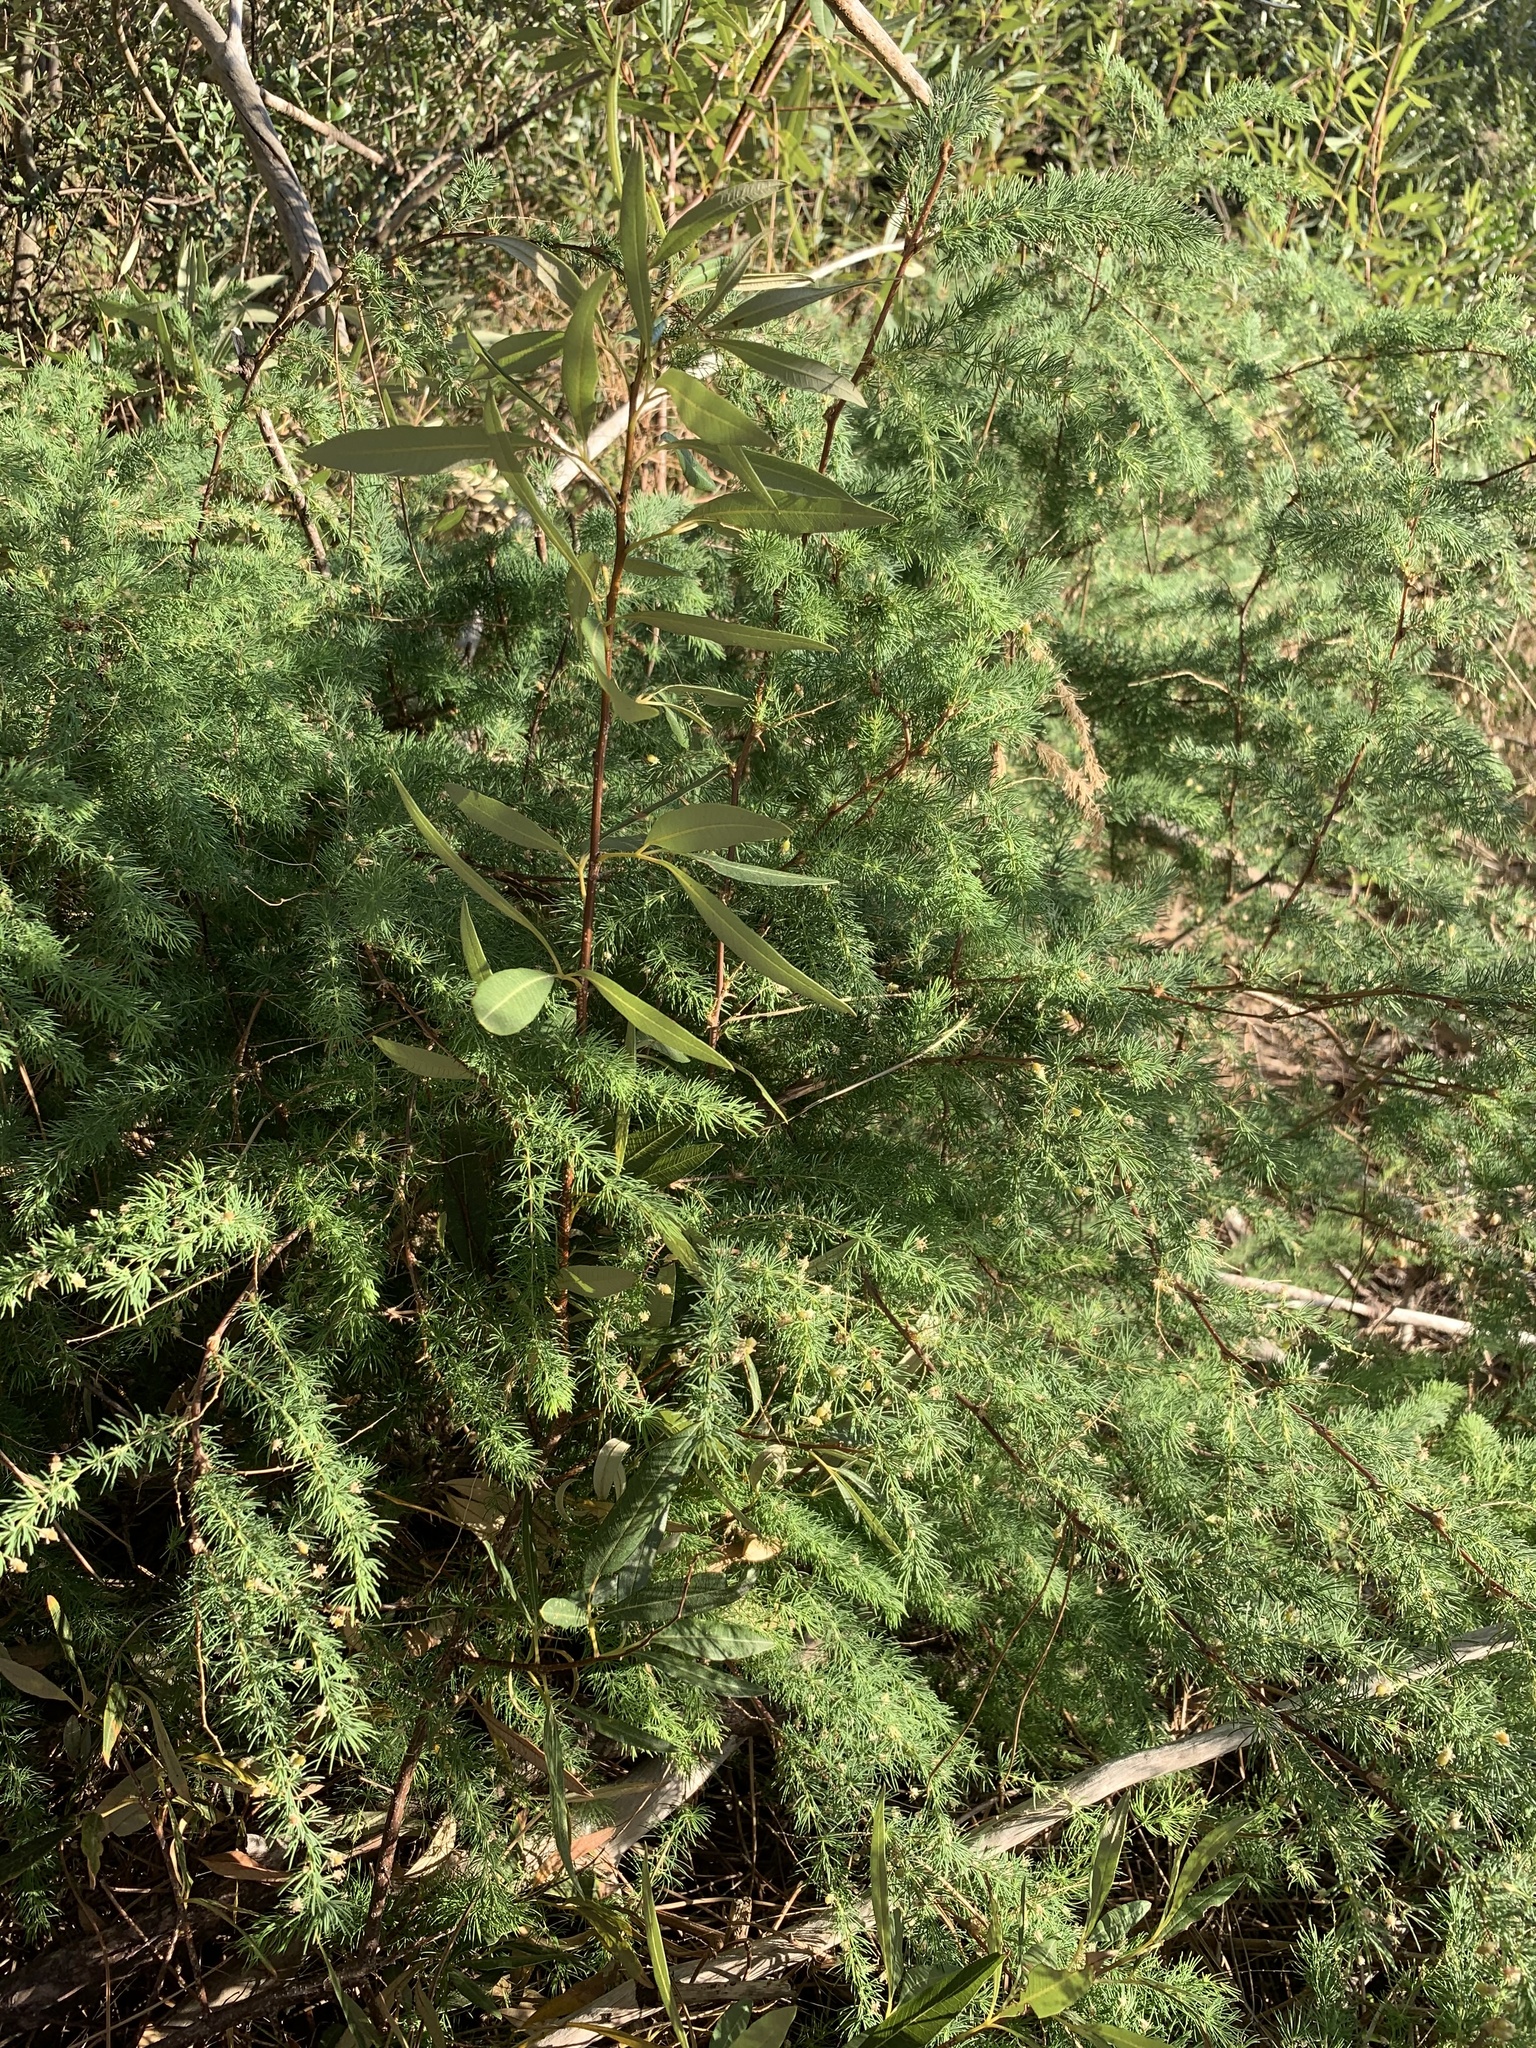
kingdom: Plantae
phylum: Tracheophyta
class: Liliopsida
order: Asparagales
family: Asparagaceae
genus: Asparagus
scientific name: Asparagus rubicundus
